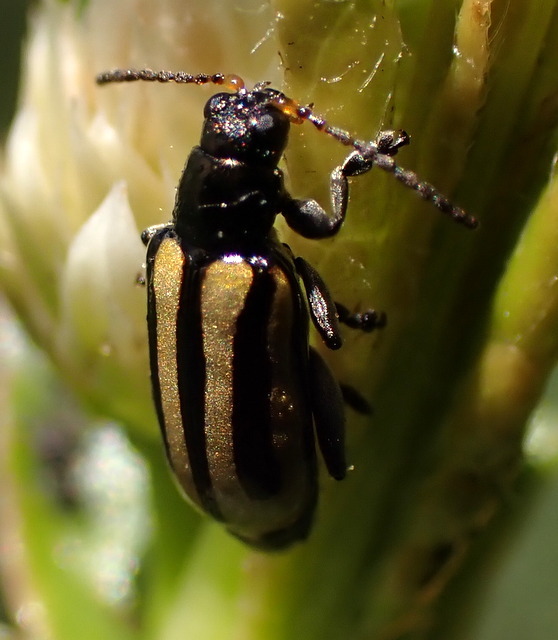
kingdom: Animalia
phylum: Arthropoda
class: Insecta
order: Coleoptera
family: Chrysomelidae
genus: Agasicles
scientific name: Agasicles hygrophila
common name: Alligatorweed flea beetle
